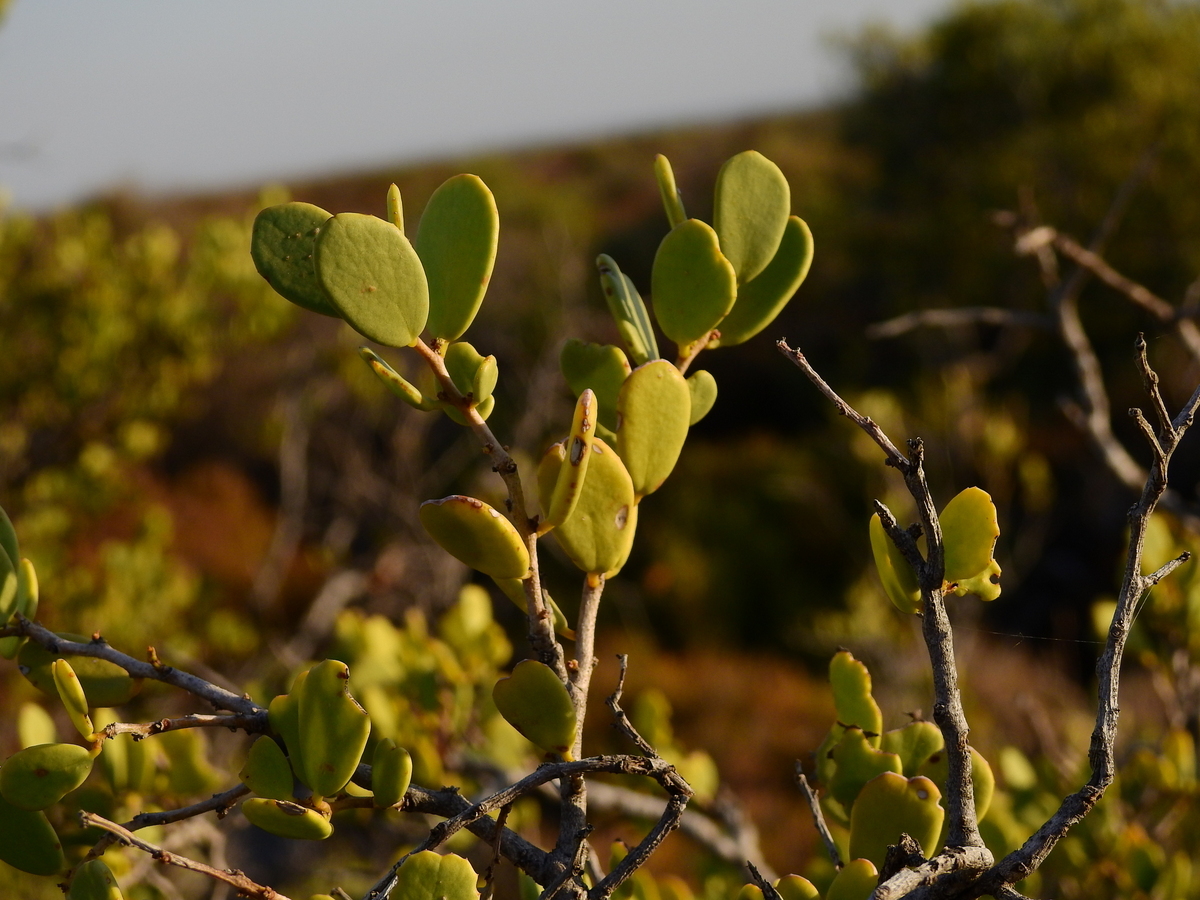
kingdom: Plantae
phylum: Tracheophyta
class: Magnoliopsida
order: Celastrales
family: Celastraceae
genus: Tricerma
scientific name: Tricerma vitis-idaeum
